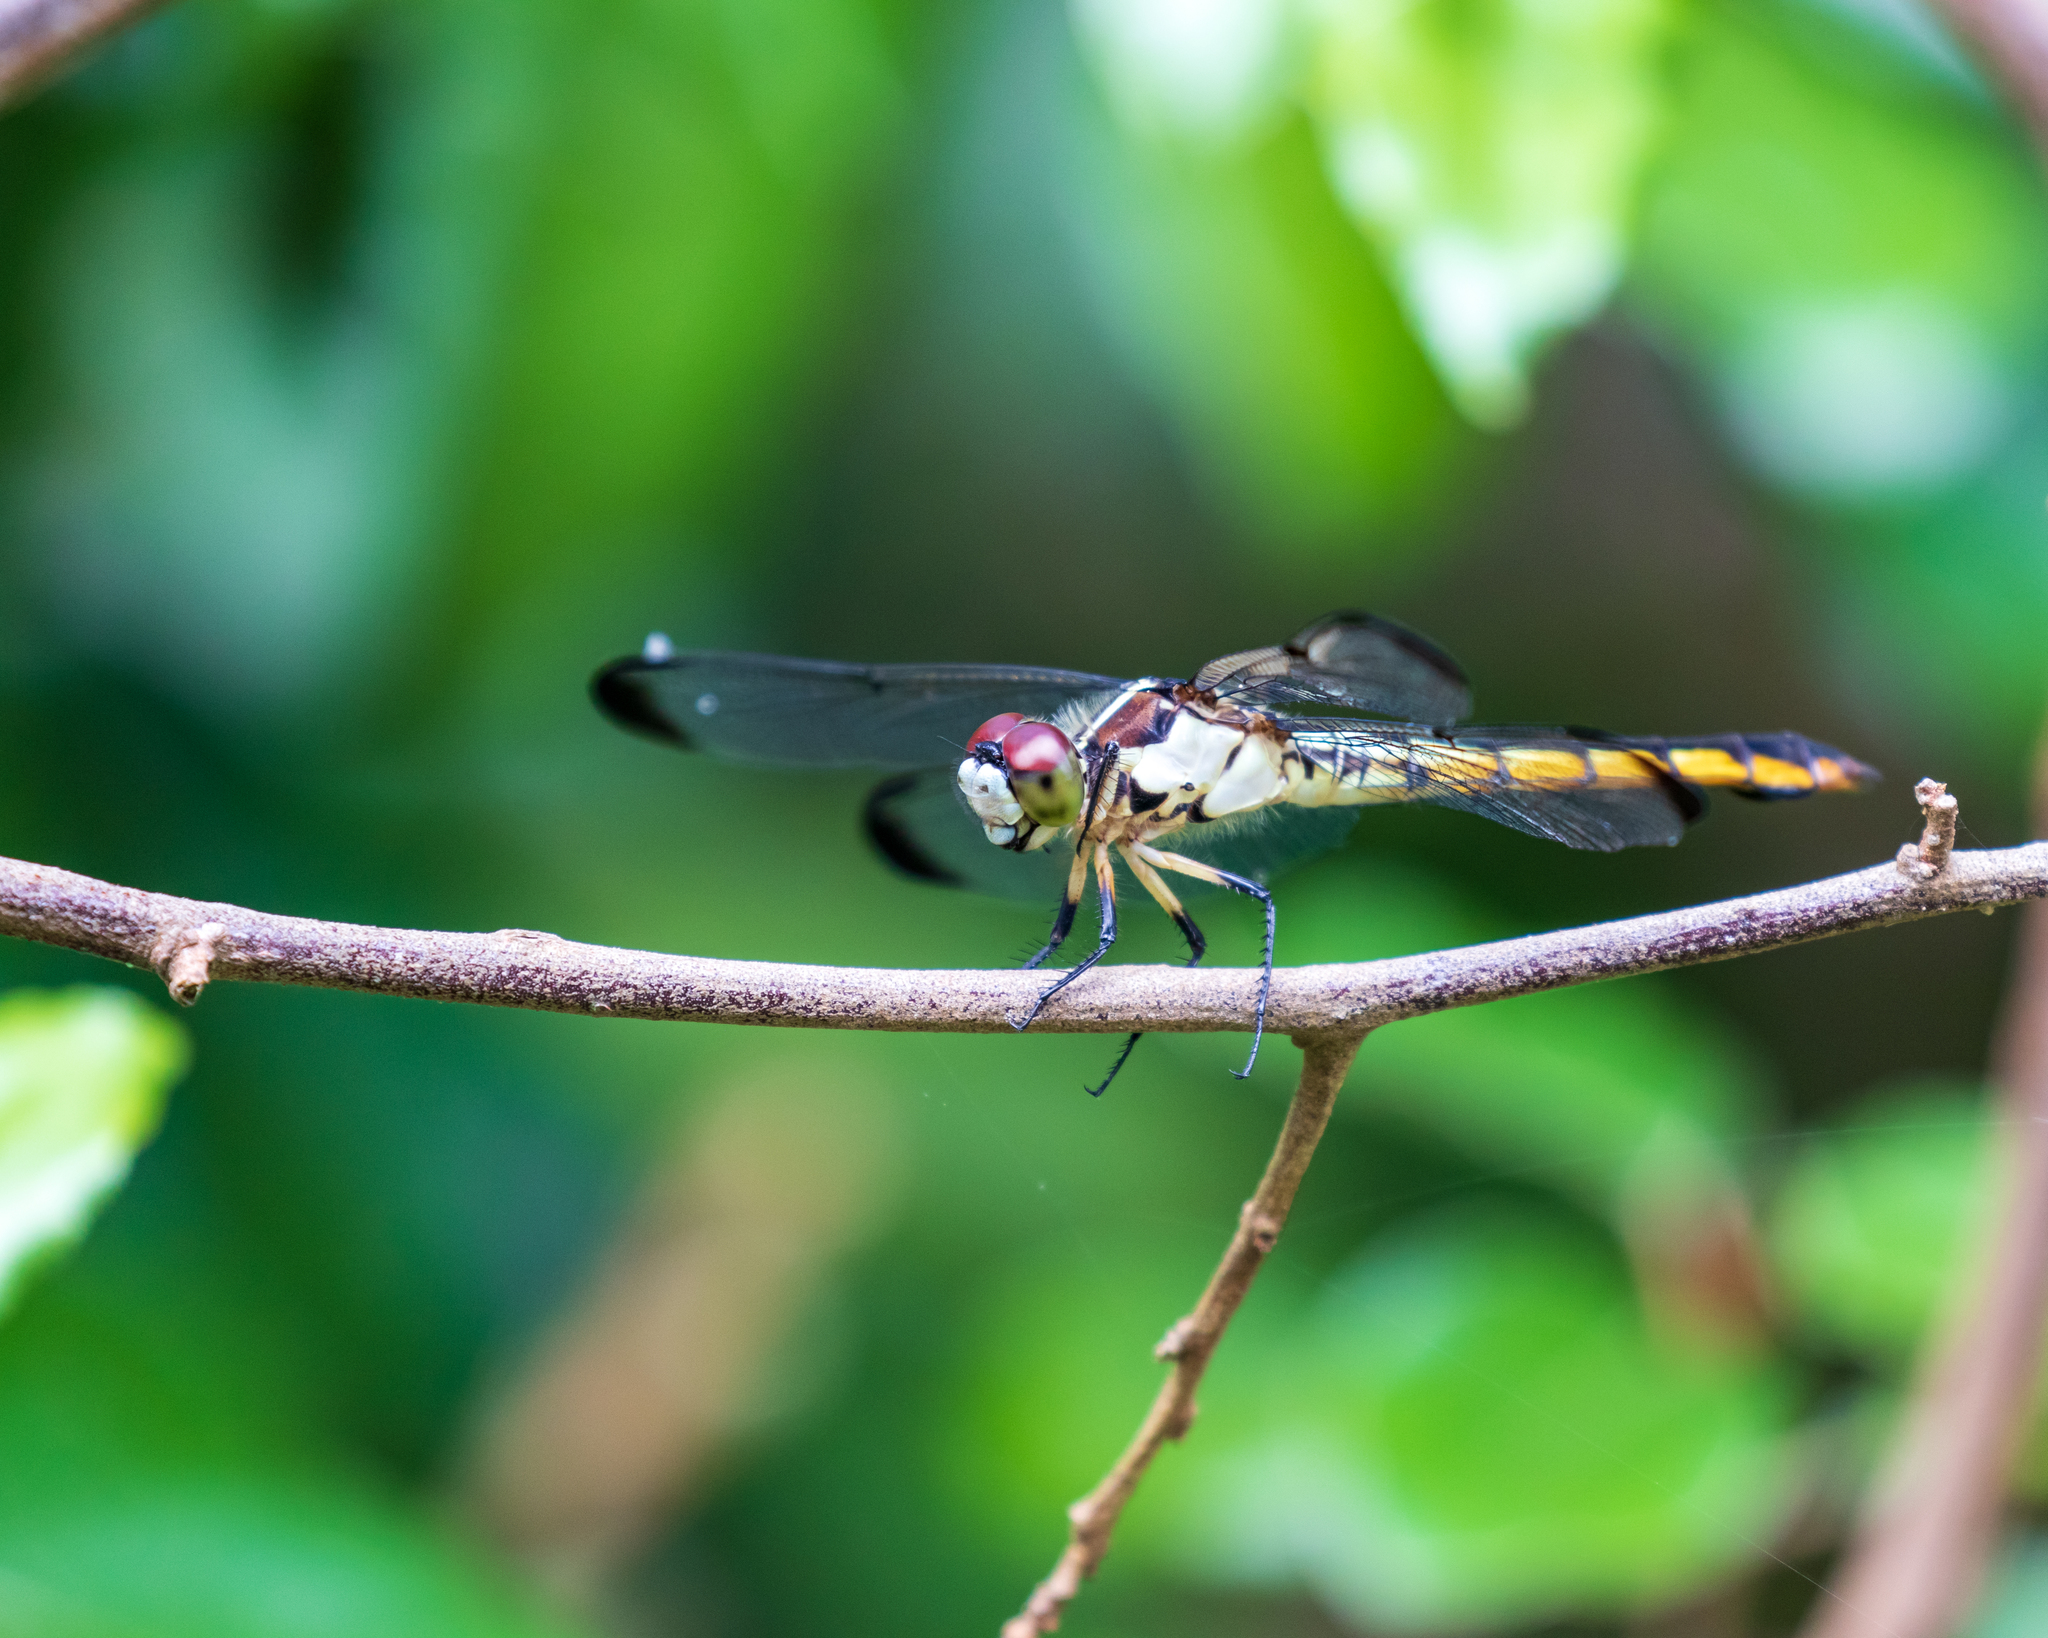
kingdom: Animalia
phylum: Arthropoda
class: Insecta
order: Odonata
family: Libellulidae
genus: Libellula
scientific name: Libellula vibrans
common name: Great blue skimmer
